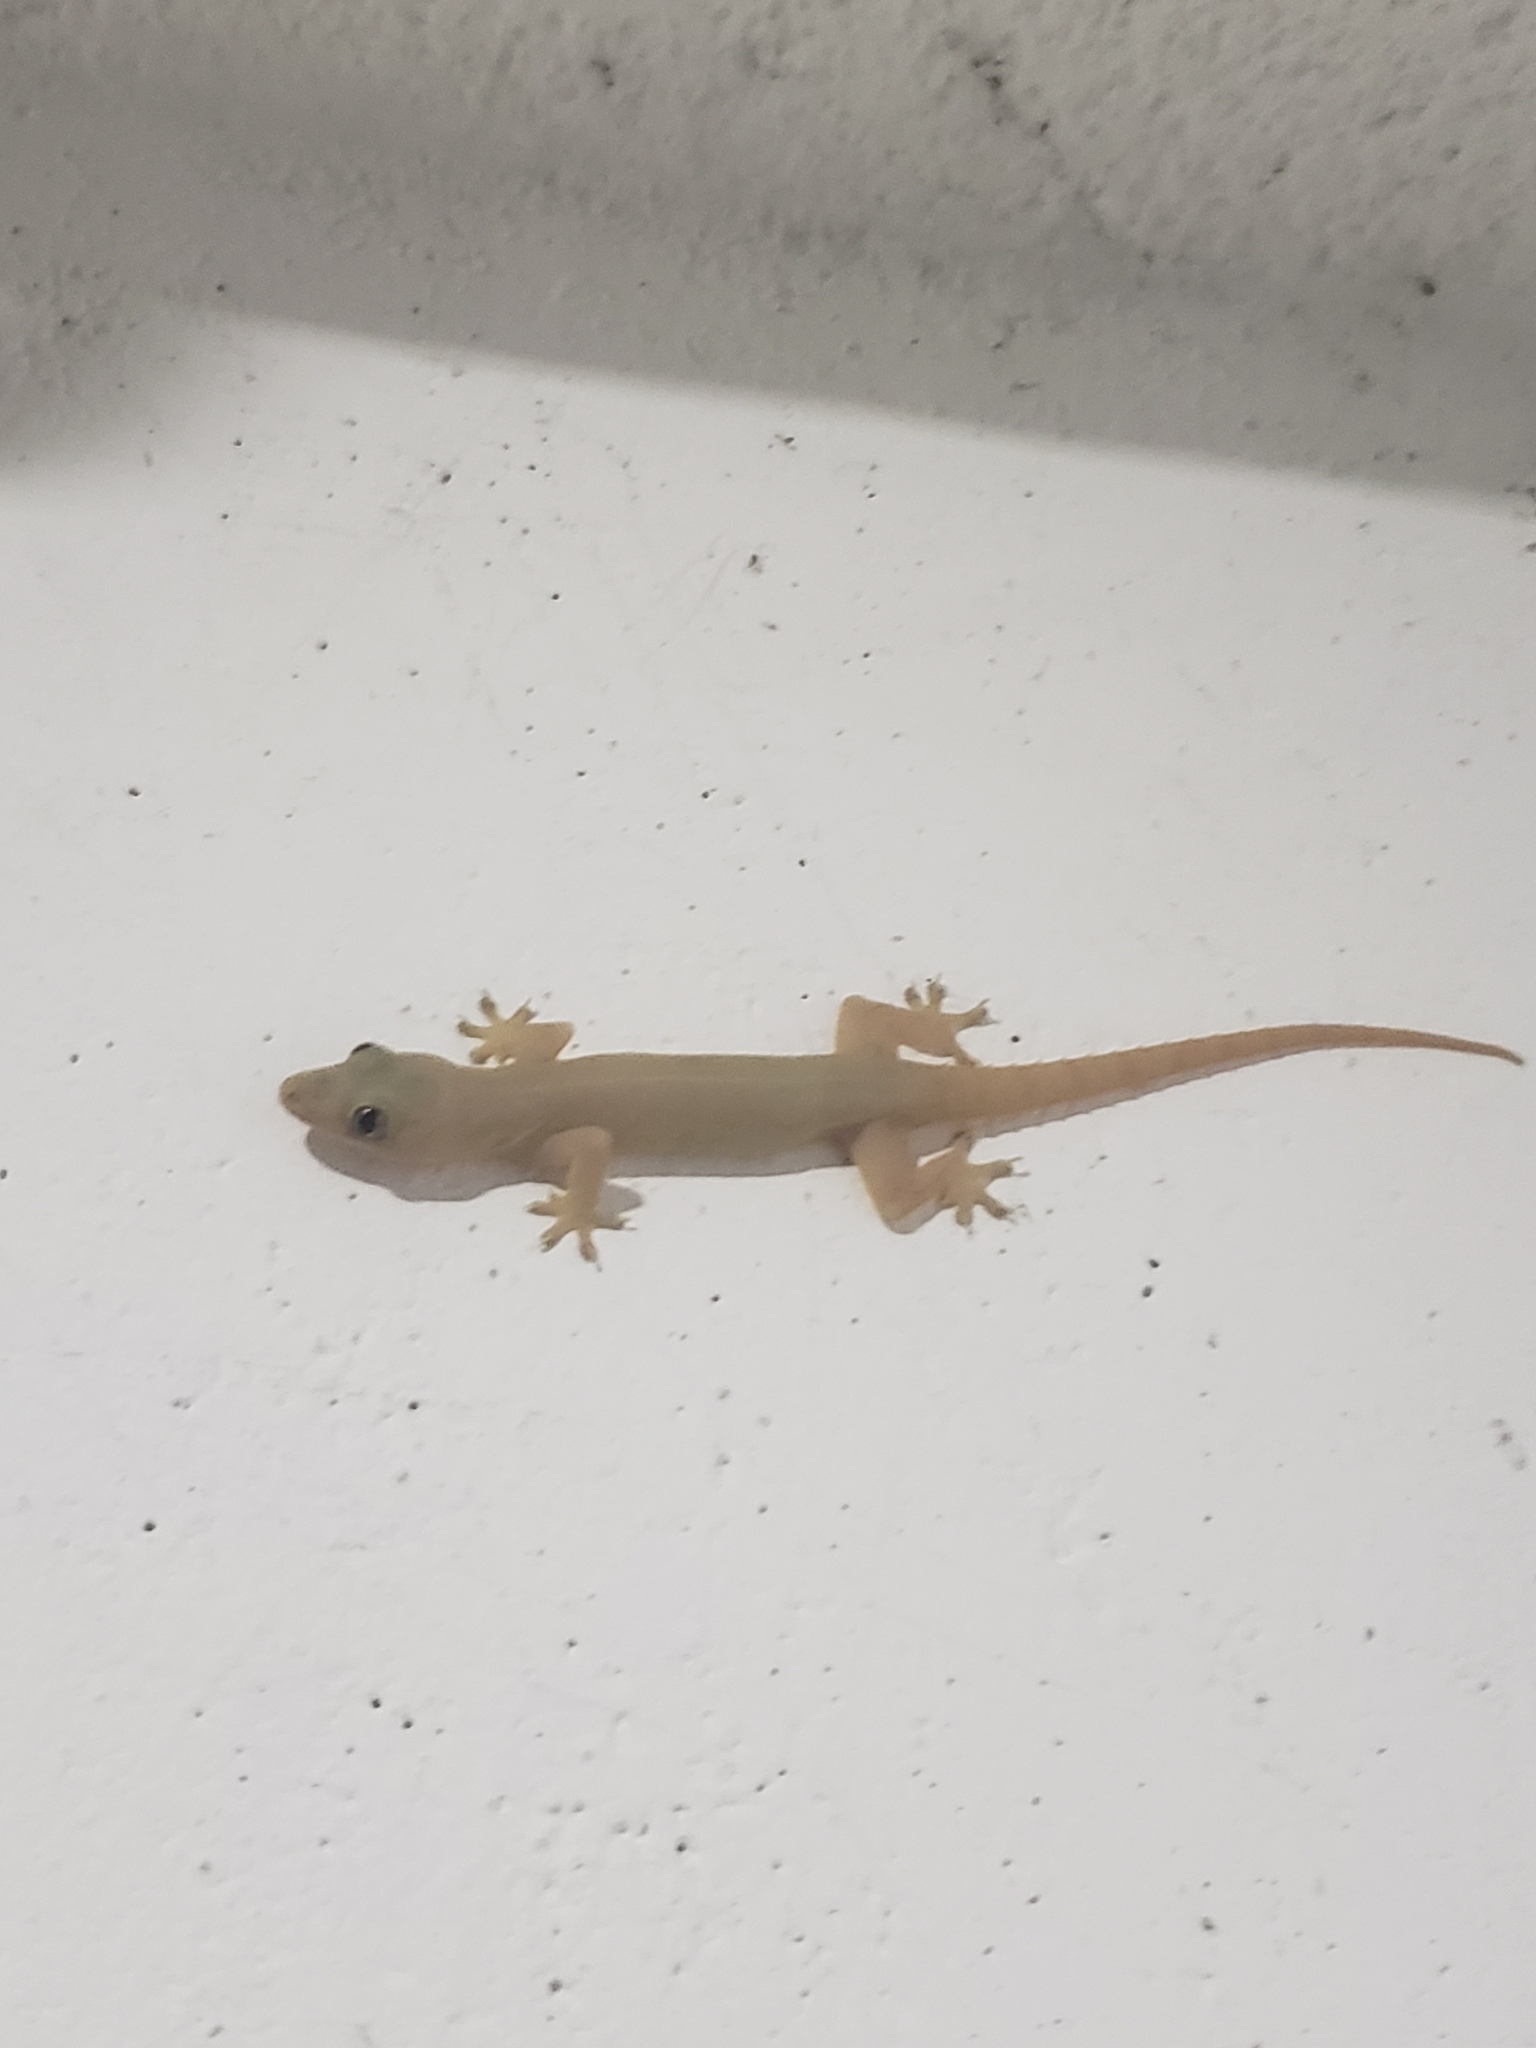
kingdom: Animalia
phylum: Chordata
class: Squamata
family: Gekkonidae
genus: Hemidactylus
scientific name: Hemidactylus frenatus
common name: Common house gecko
